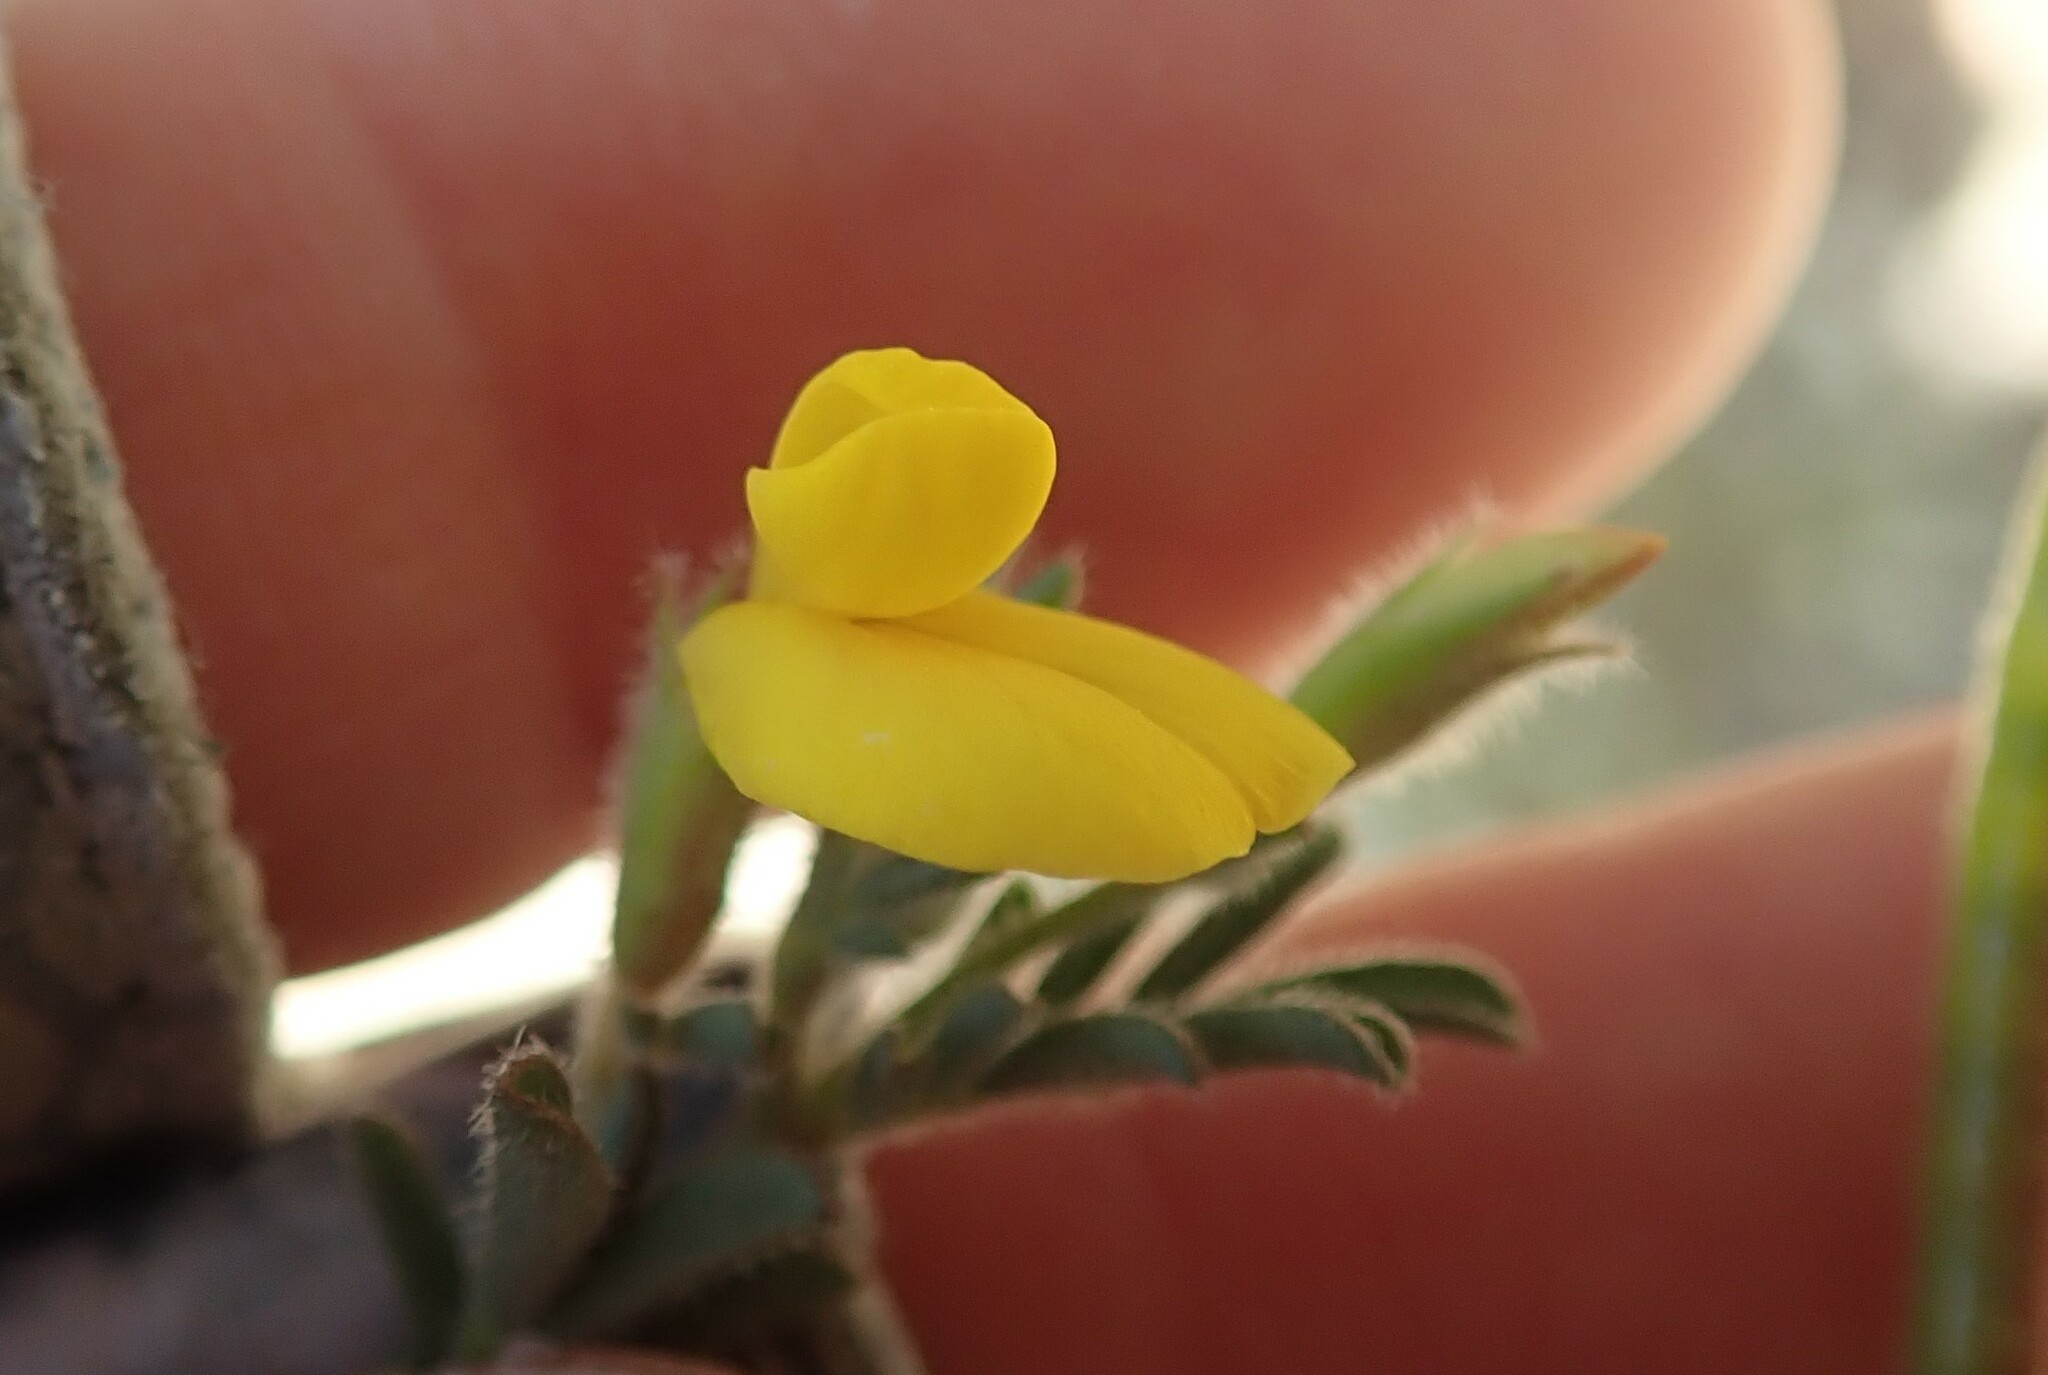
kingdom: Plantae
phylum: Tracheophyta
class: Magnoliopsida
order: Fabales
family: Fabaceae
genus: Acmispon
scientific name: Acmispon strigosus
